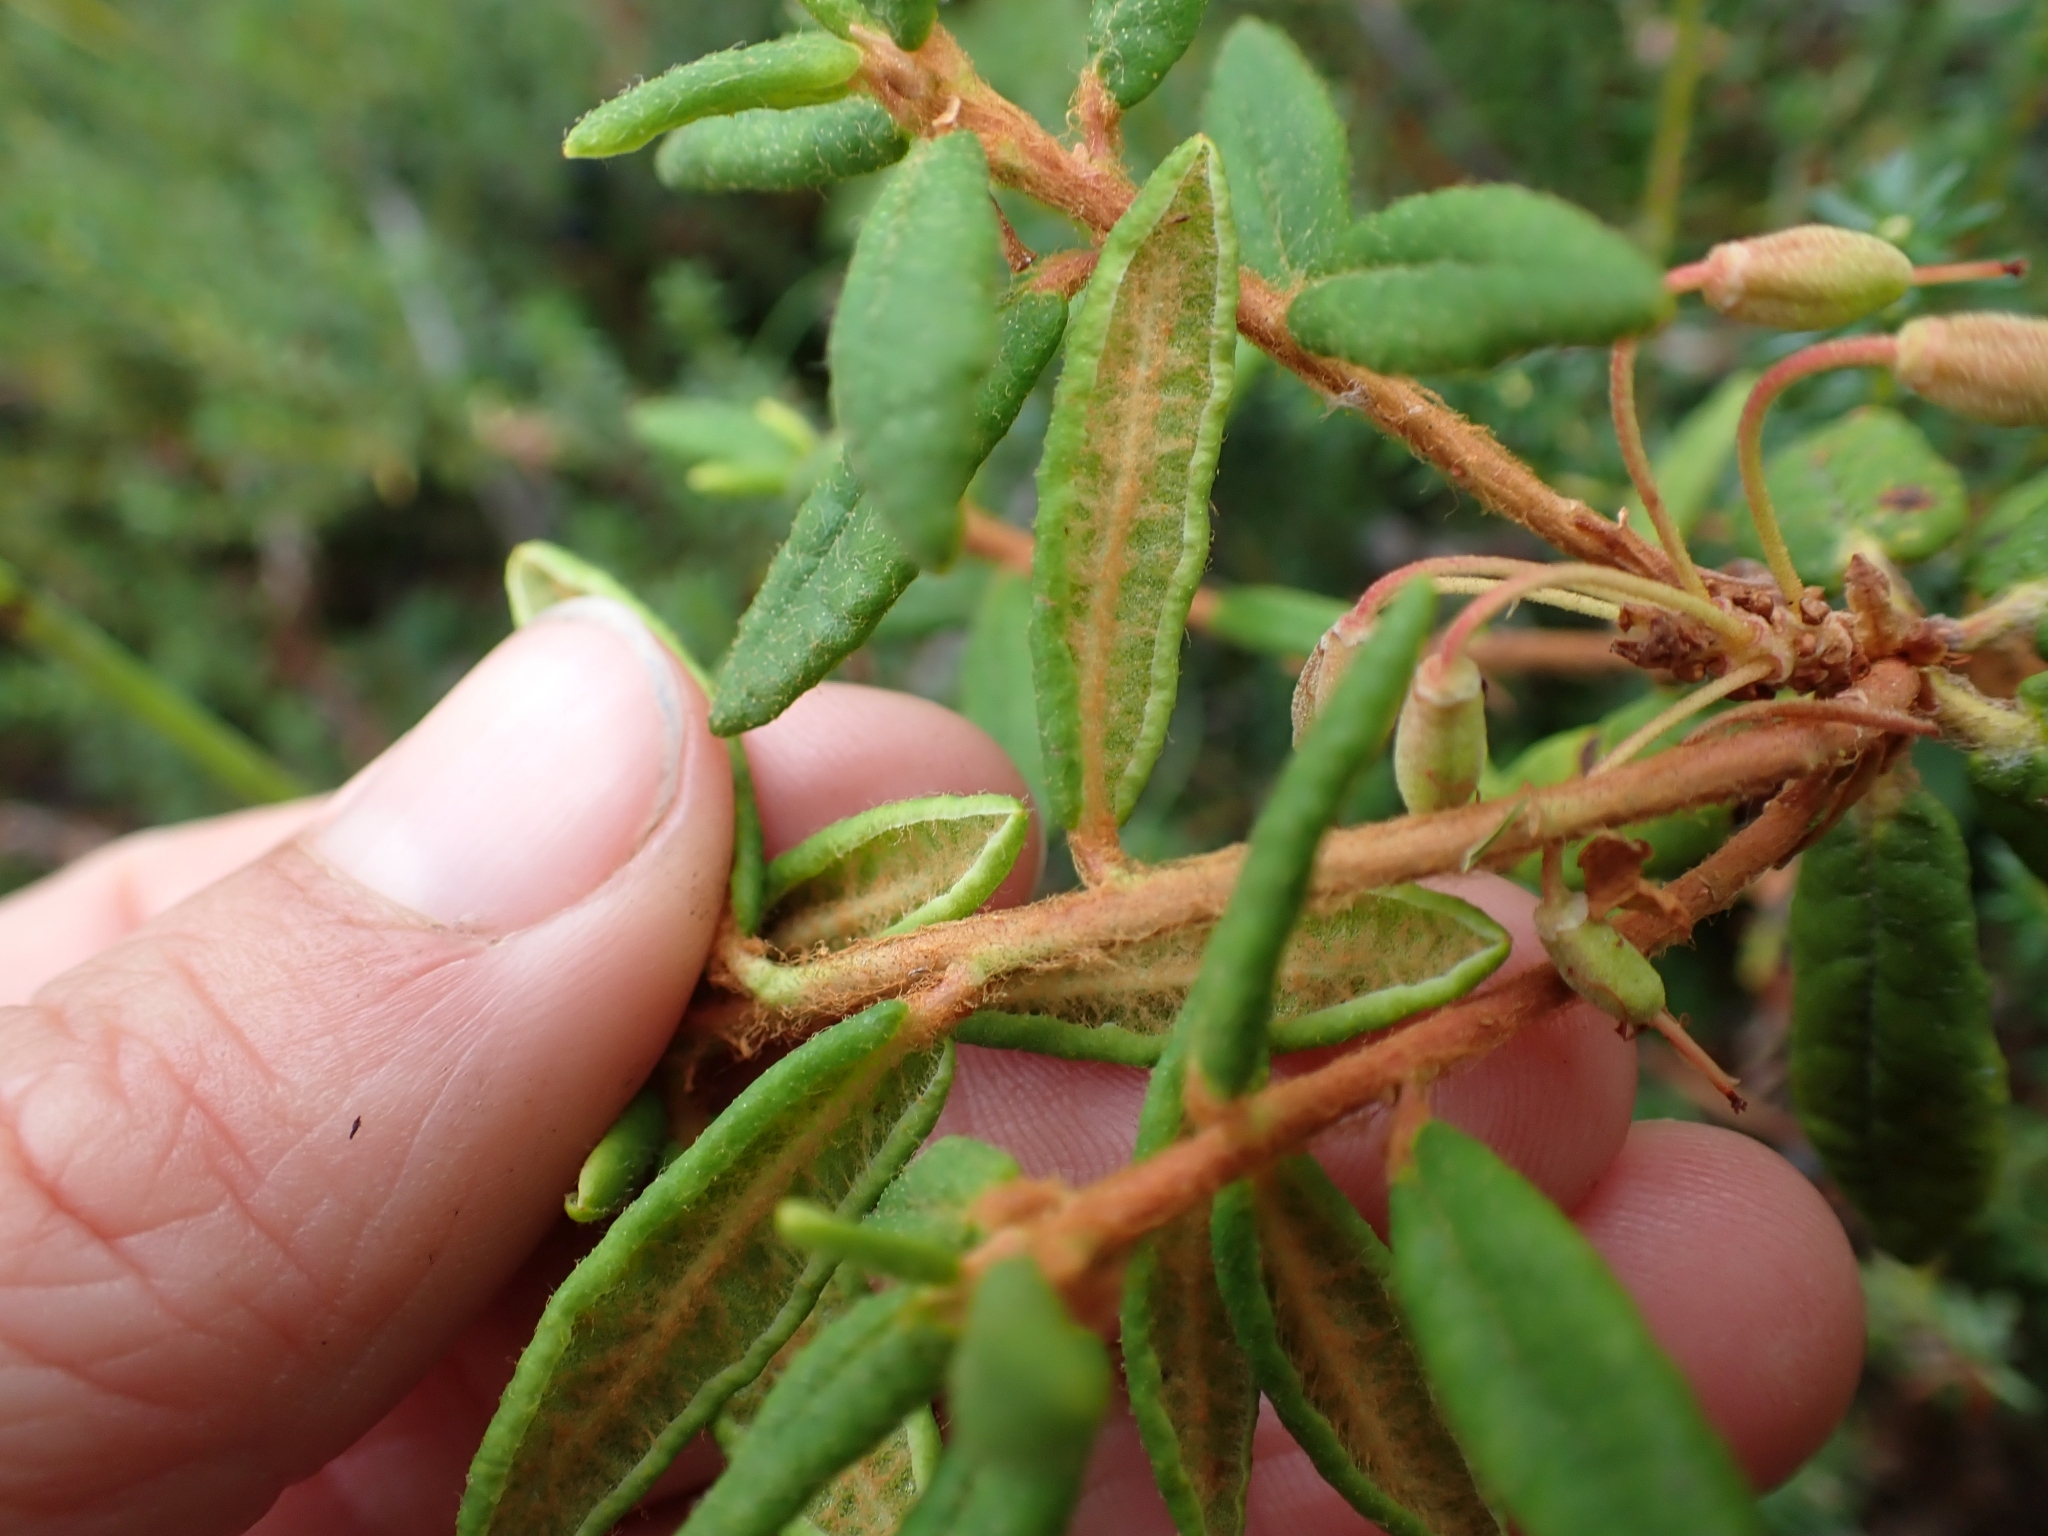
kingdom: Plantae
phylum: Tracheophyta
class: Magnoliopsida
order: Ericales
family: Ericaceae
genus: Rhododendron
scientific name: Rhododendron groenlandicum
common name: Bog labrador tea
